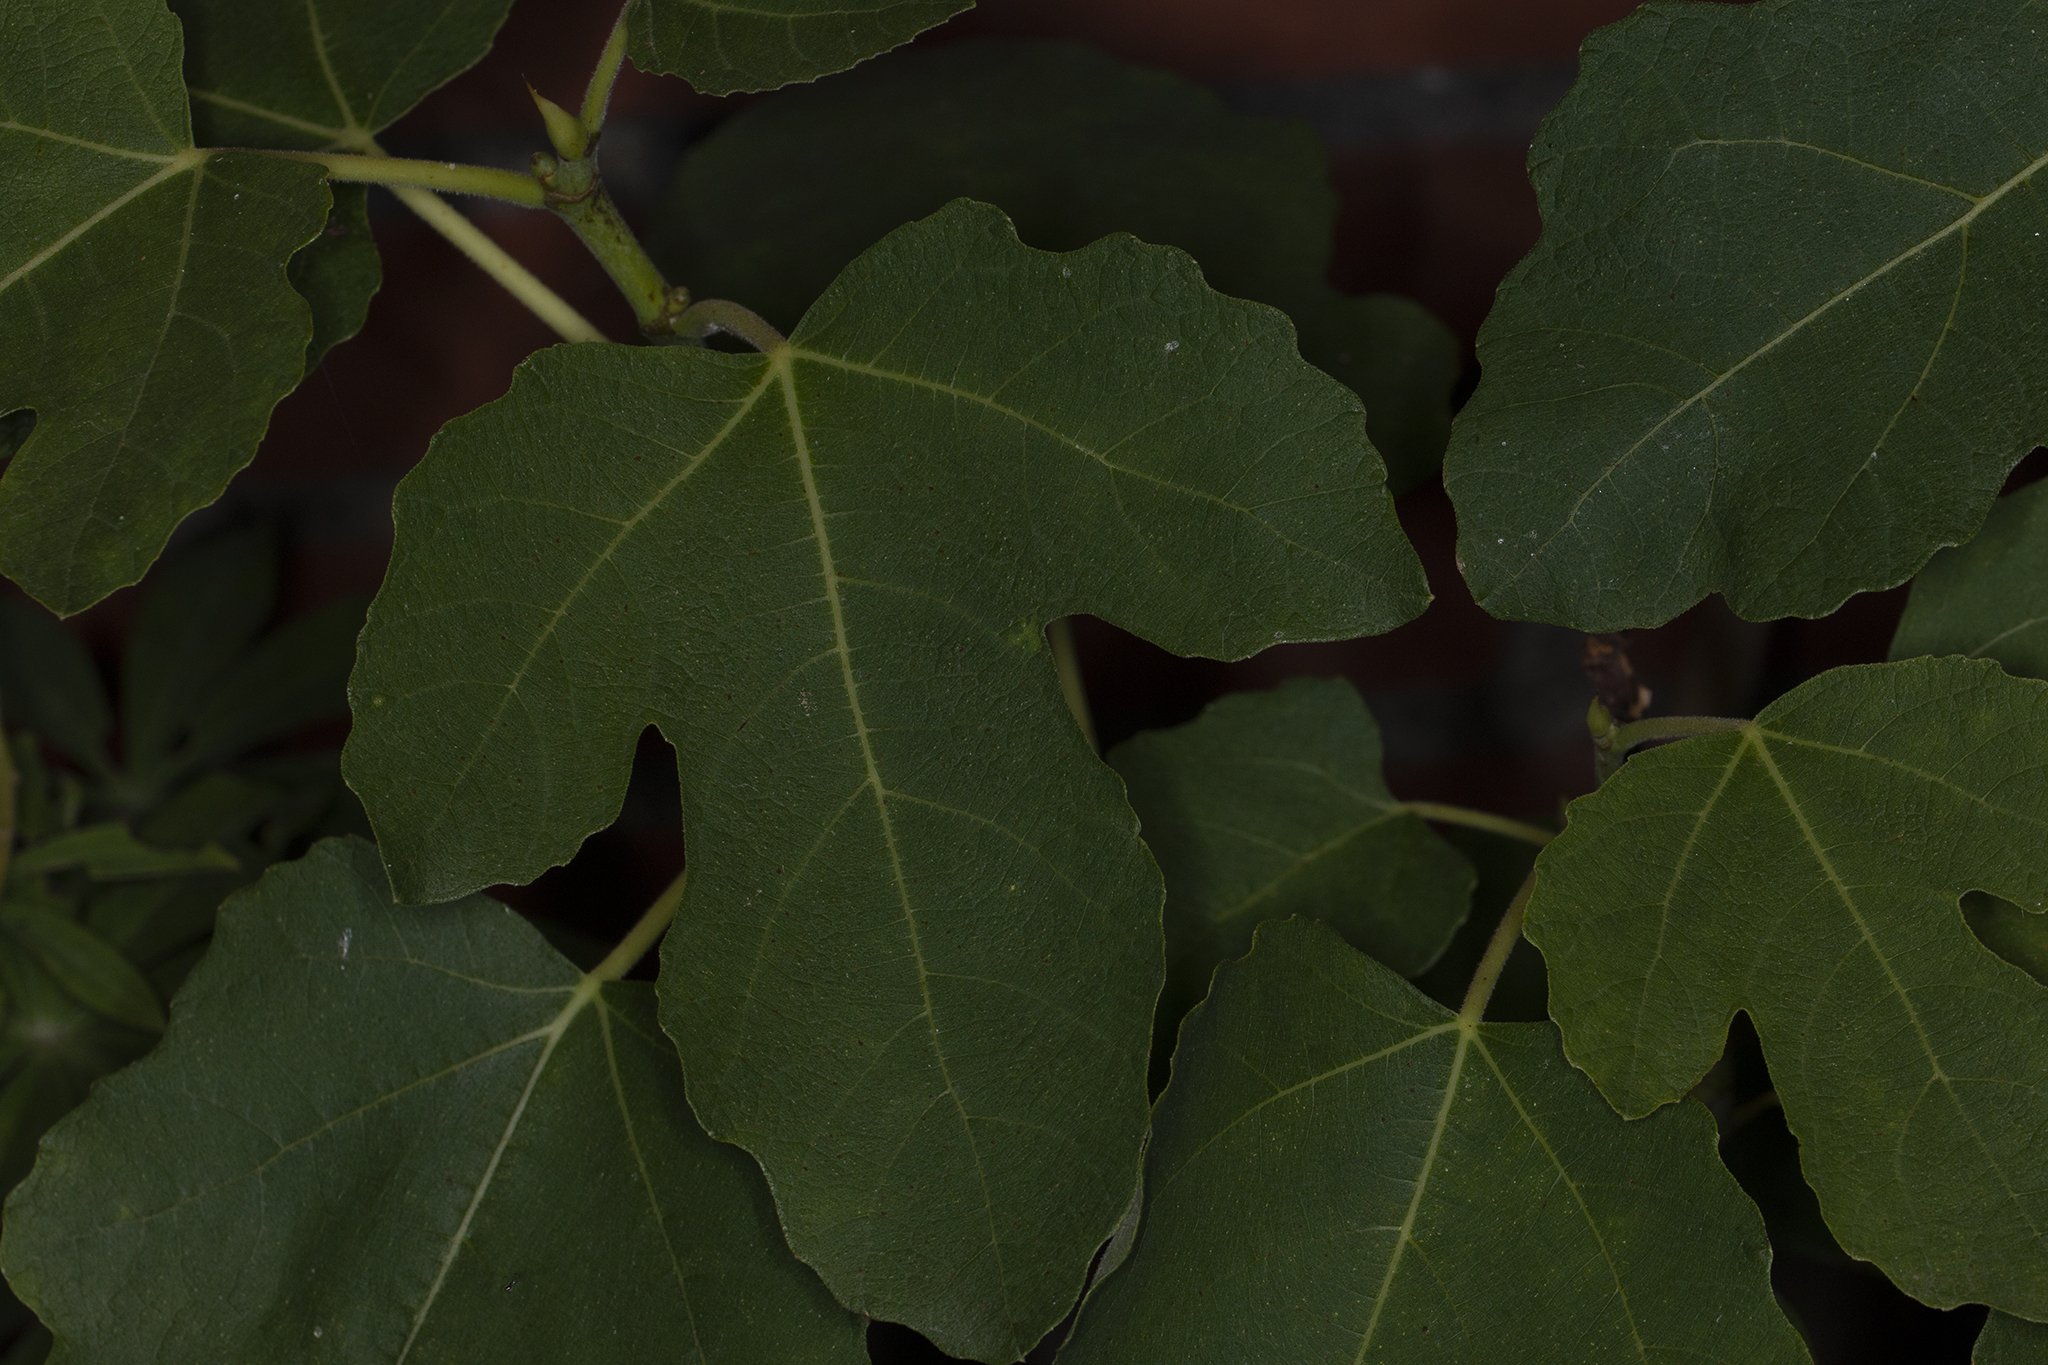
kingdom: Plantae
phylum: Tracheophyta
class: Magnoliopsida
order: Rosales
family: Moraceae
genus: Ficus
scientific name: Ficus carica
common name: Fig
